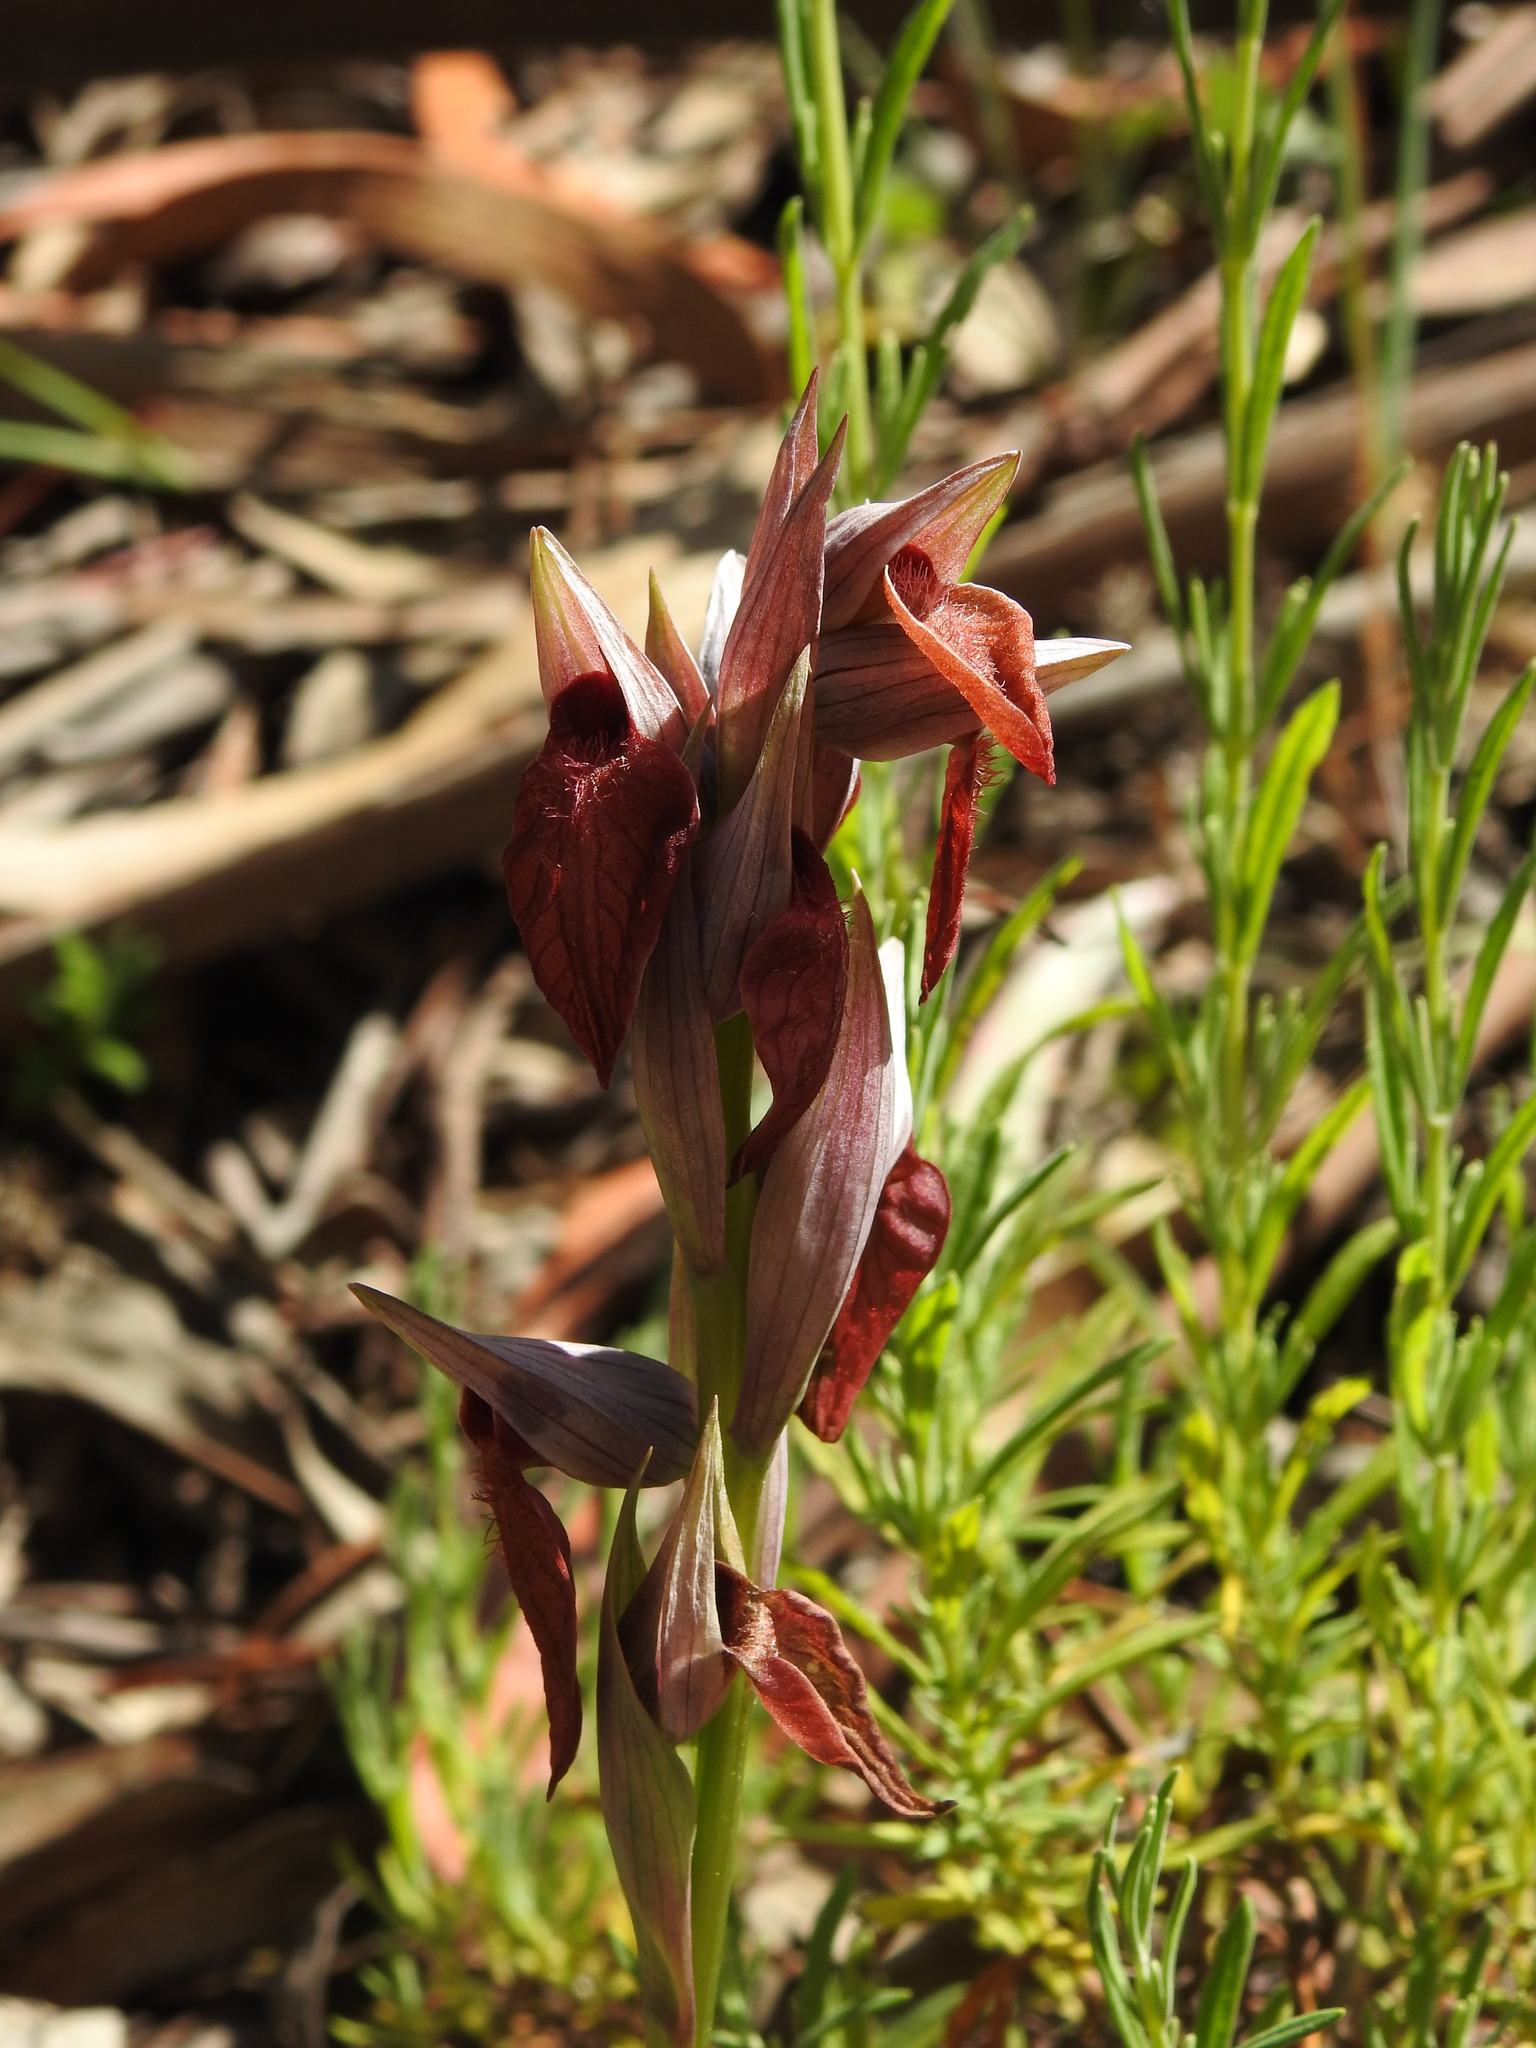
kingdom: Plantae
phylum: Tracheophyta
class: Liliopsida
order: Asparagales
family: Orchidaceae
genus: Serapias
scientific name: Serapias cordigera
